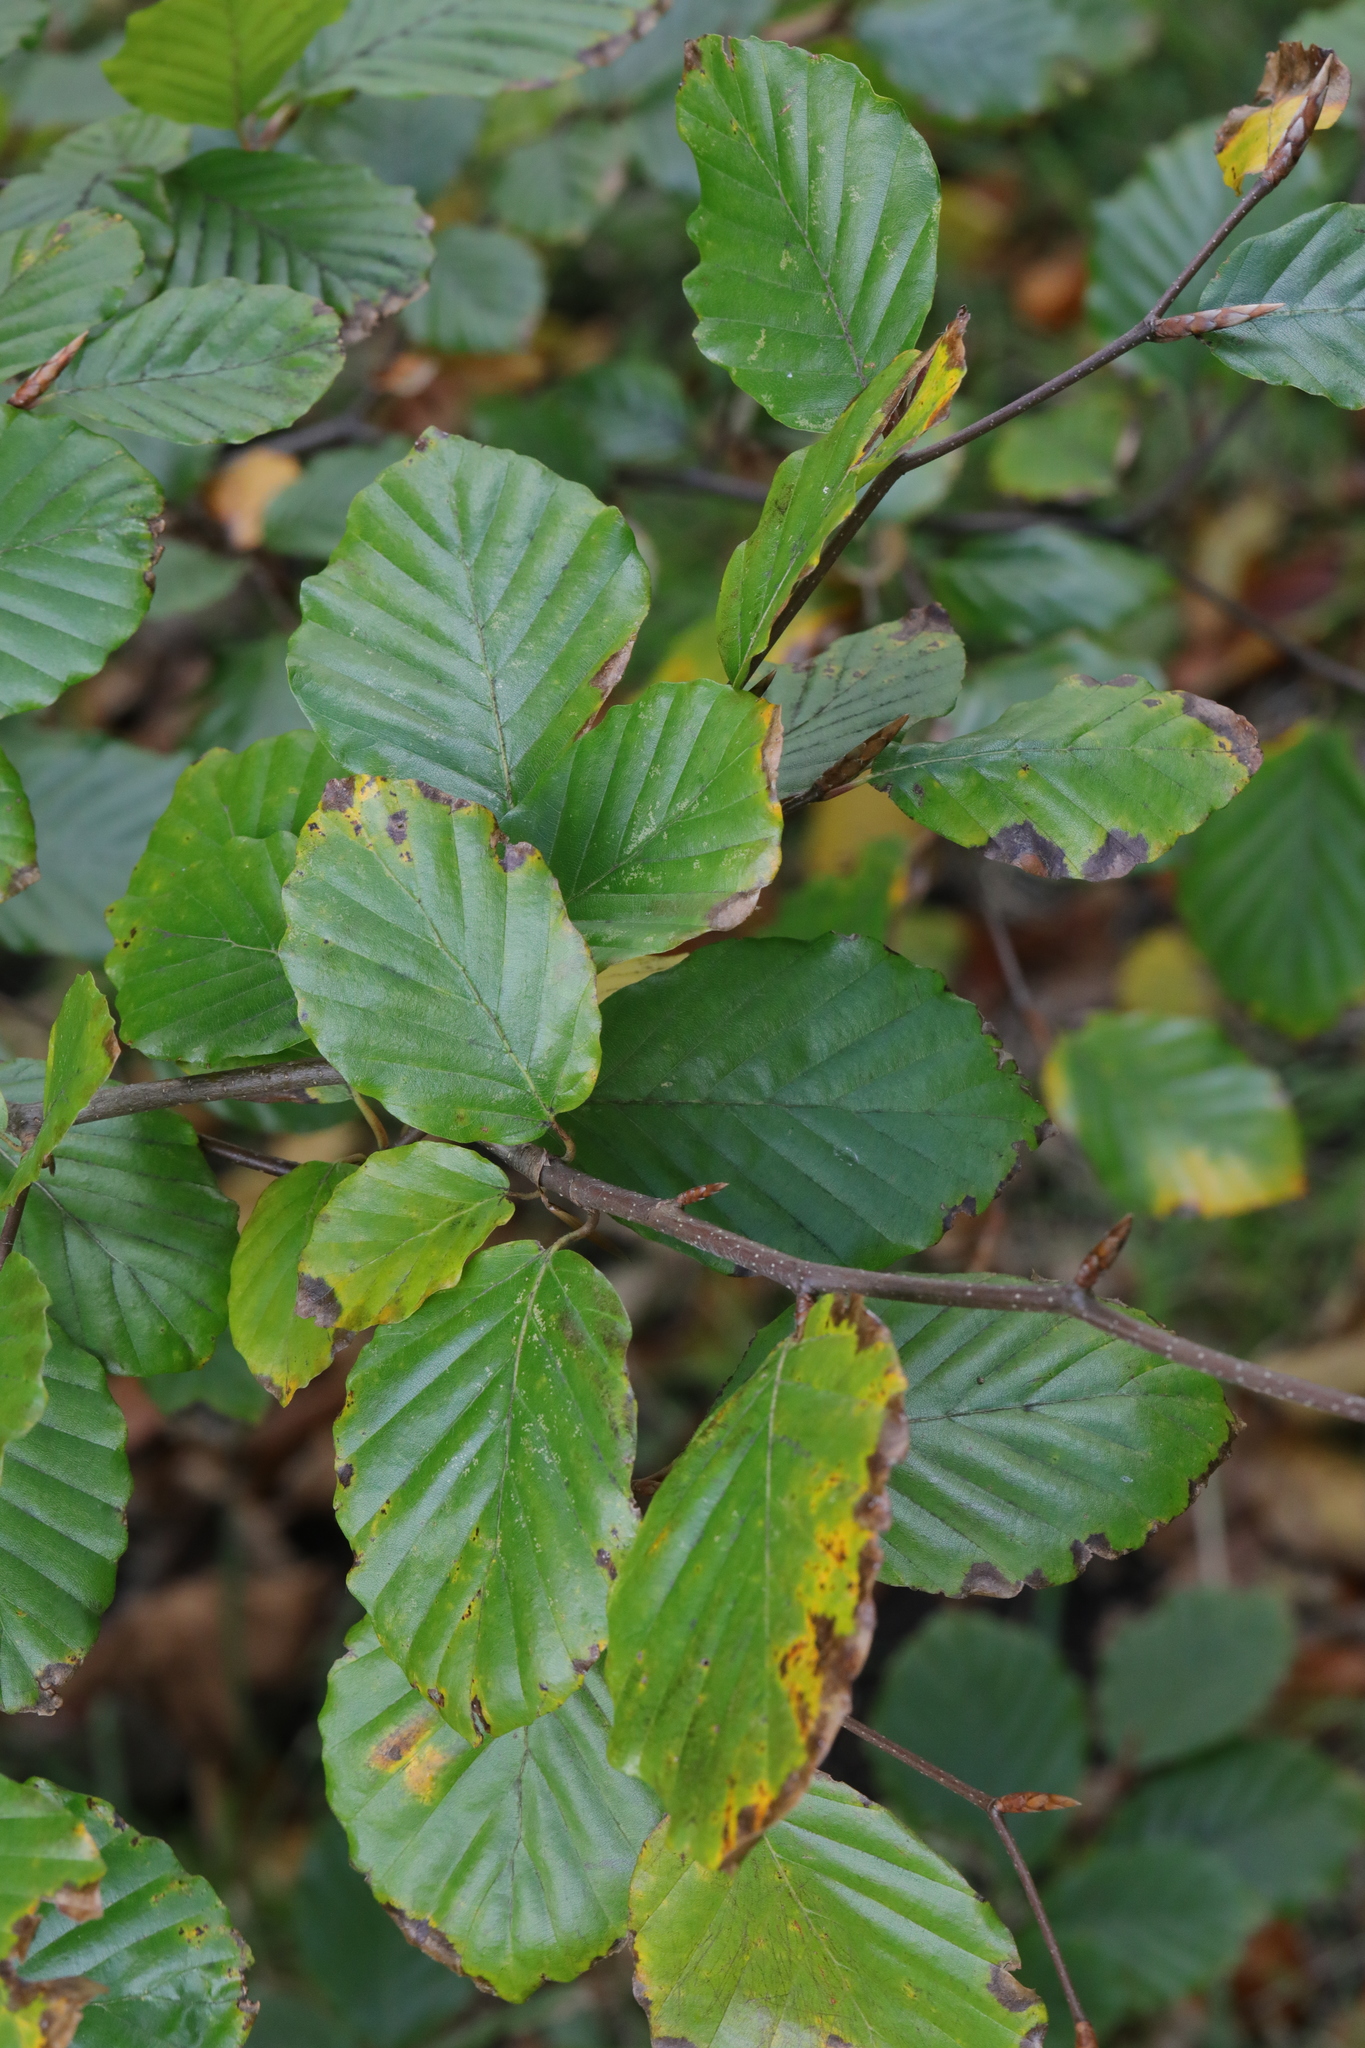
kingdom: Plantae
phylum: Tracheophyta
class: Magnoliopsida
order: Fagales
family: Fagaceae
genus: Fagus
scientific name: Fagus sylvatica
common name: Beech
